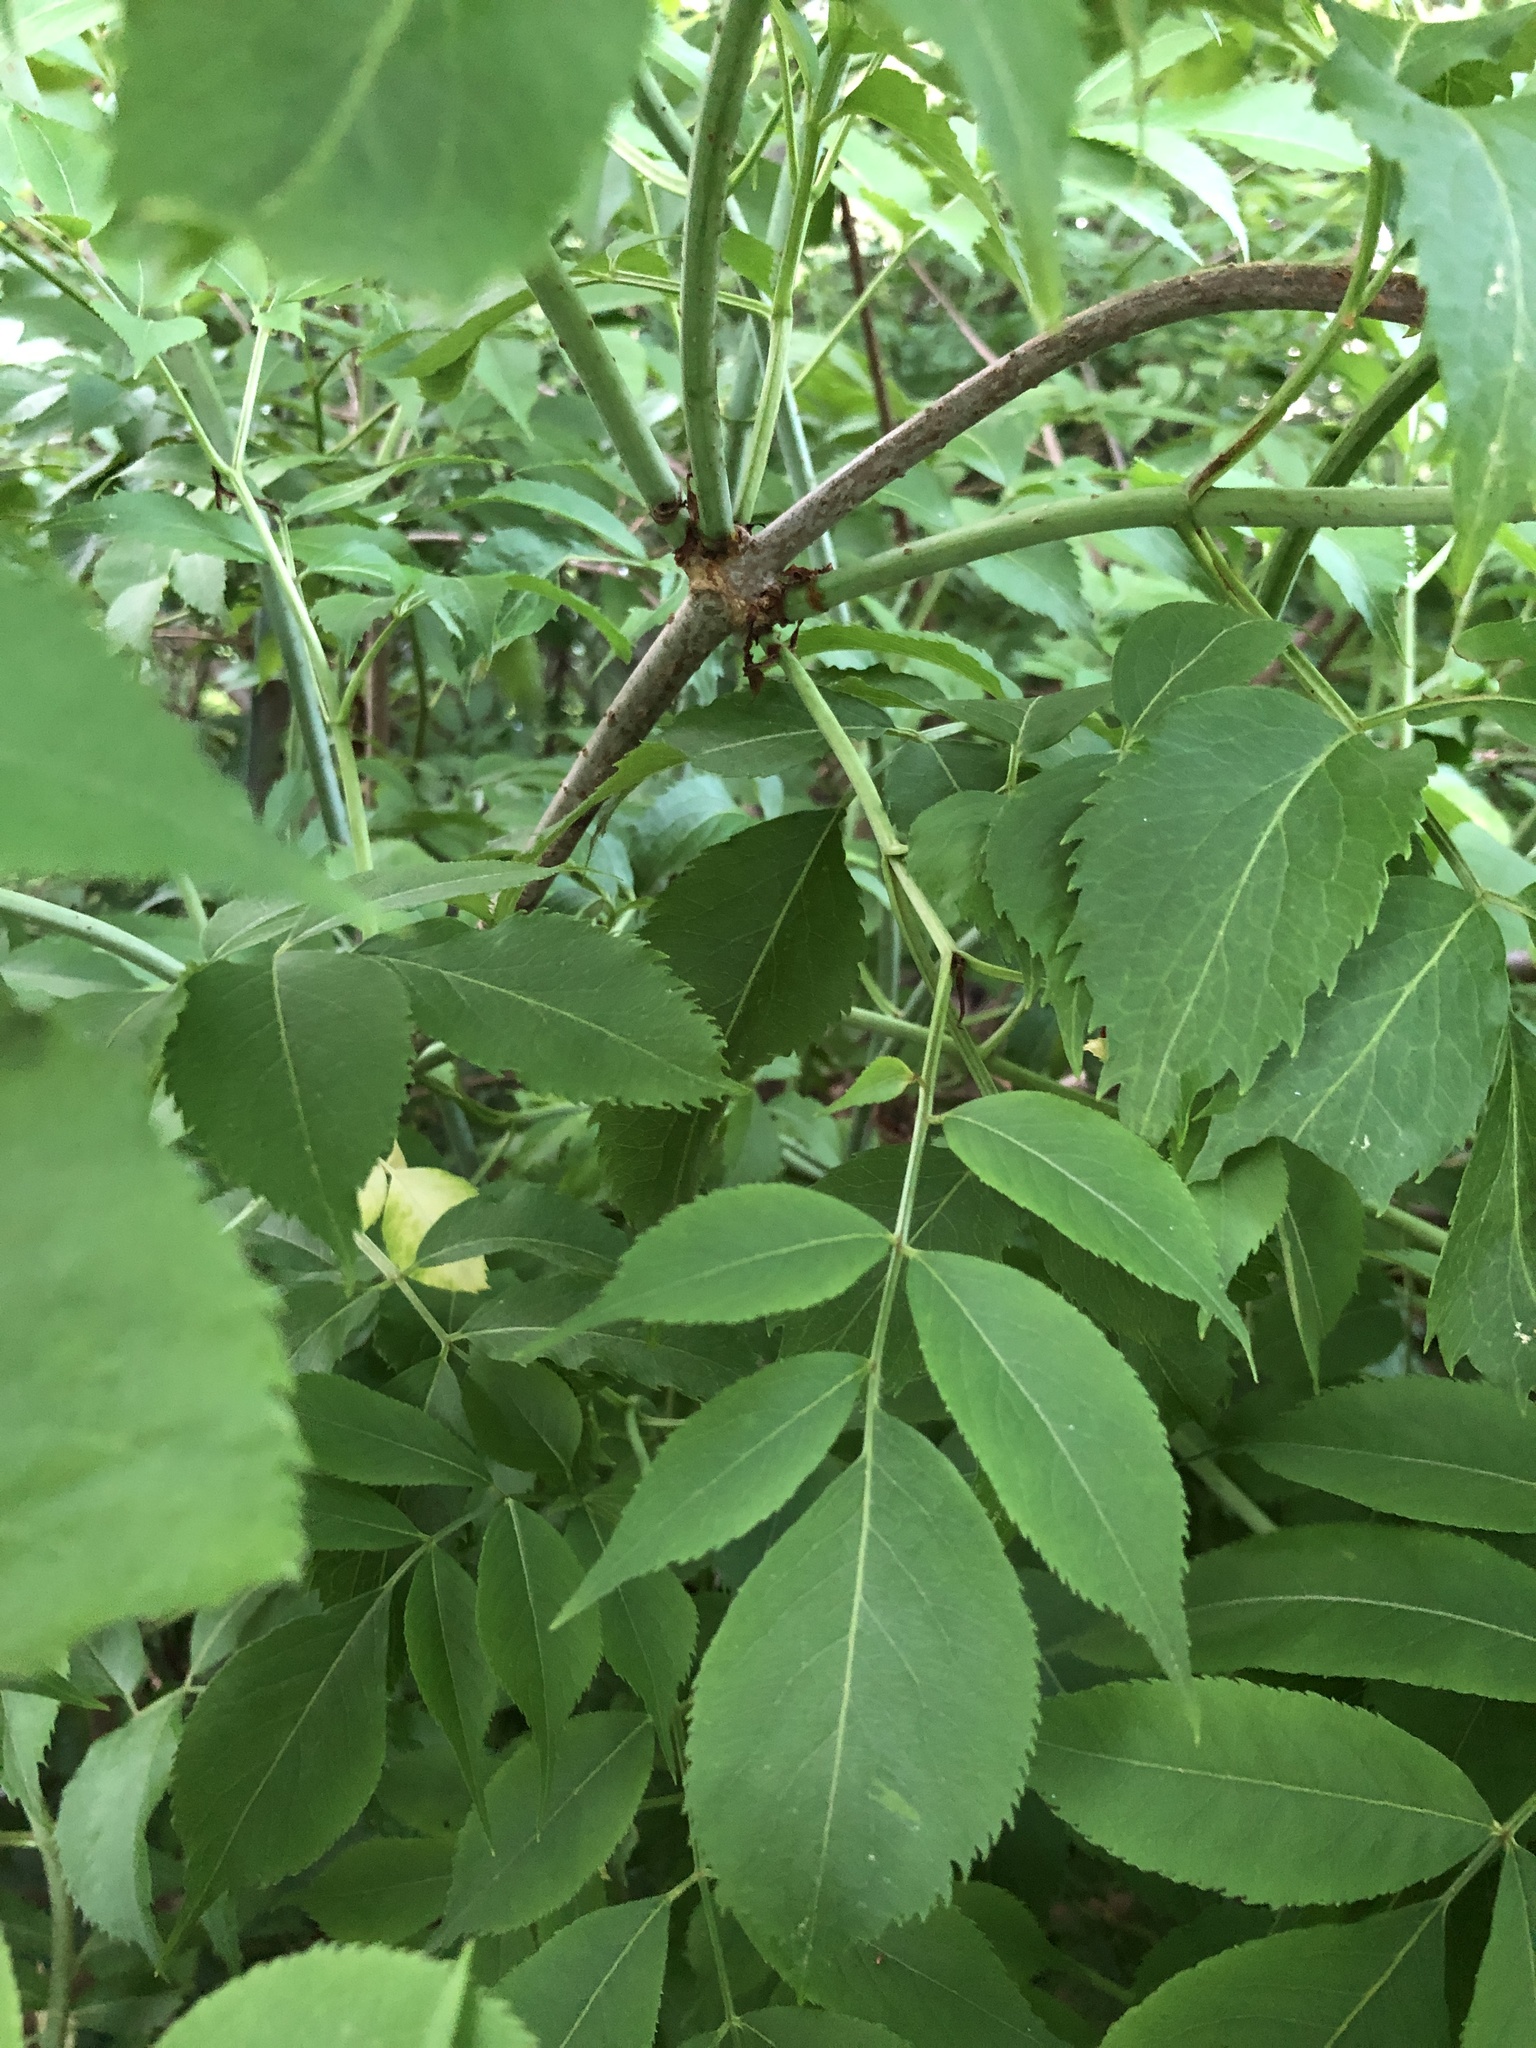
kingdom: Plantae
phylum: Tracheophyta
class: Magnoliopsida
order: Dipsacales
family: Viburnaceae
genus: Sambucus
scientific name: Sambucus canadensis
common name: American elder
